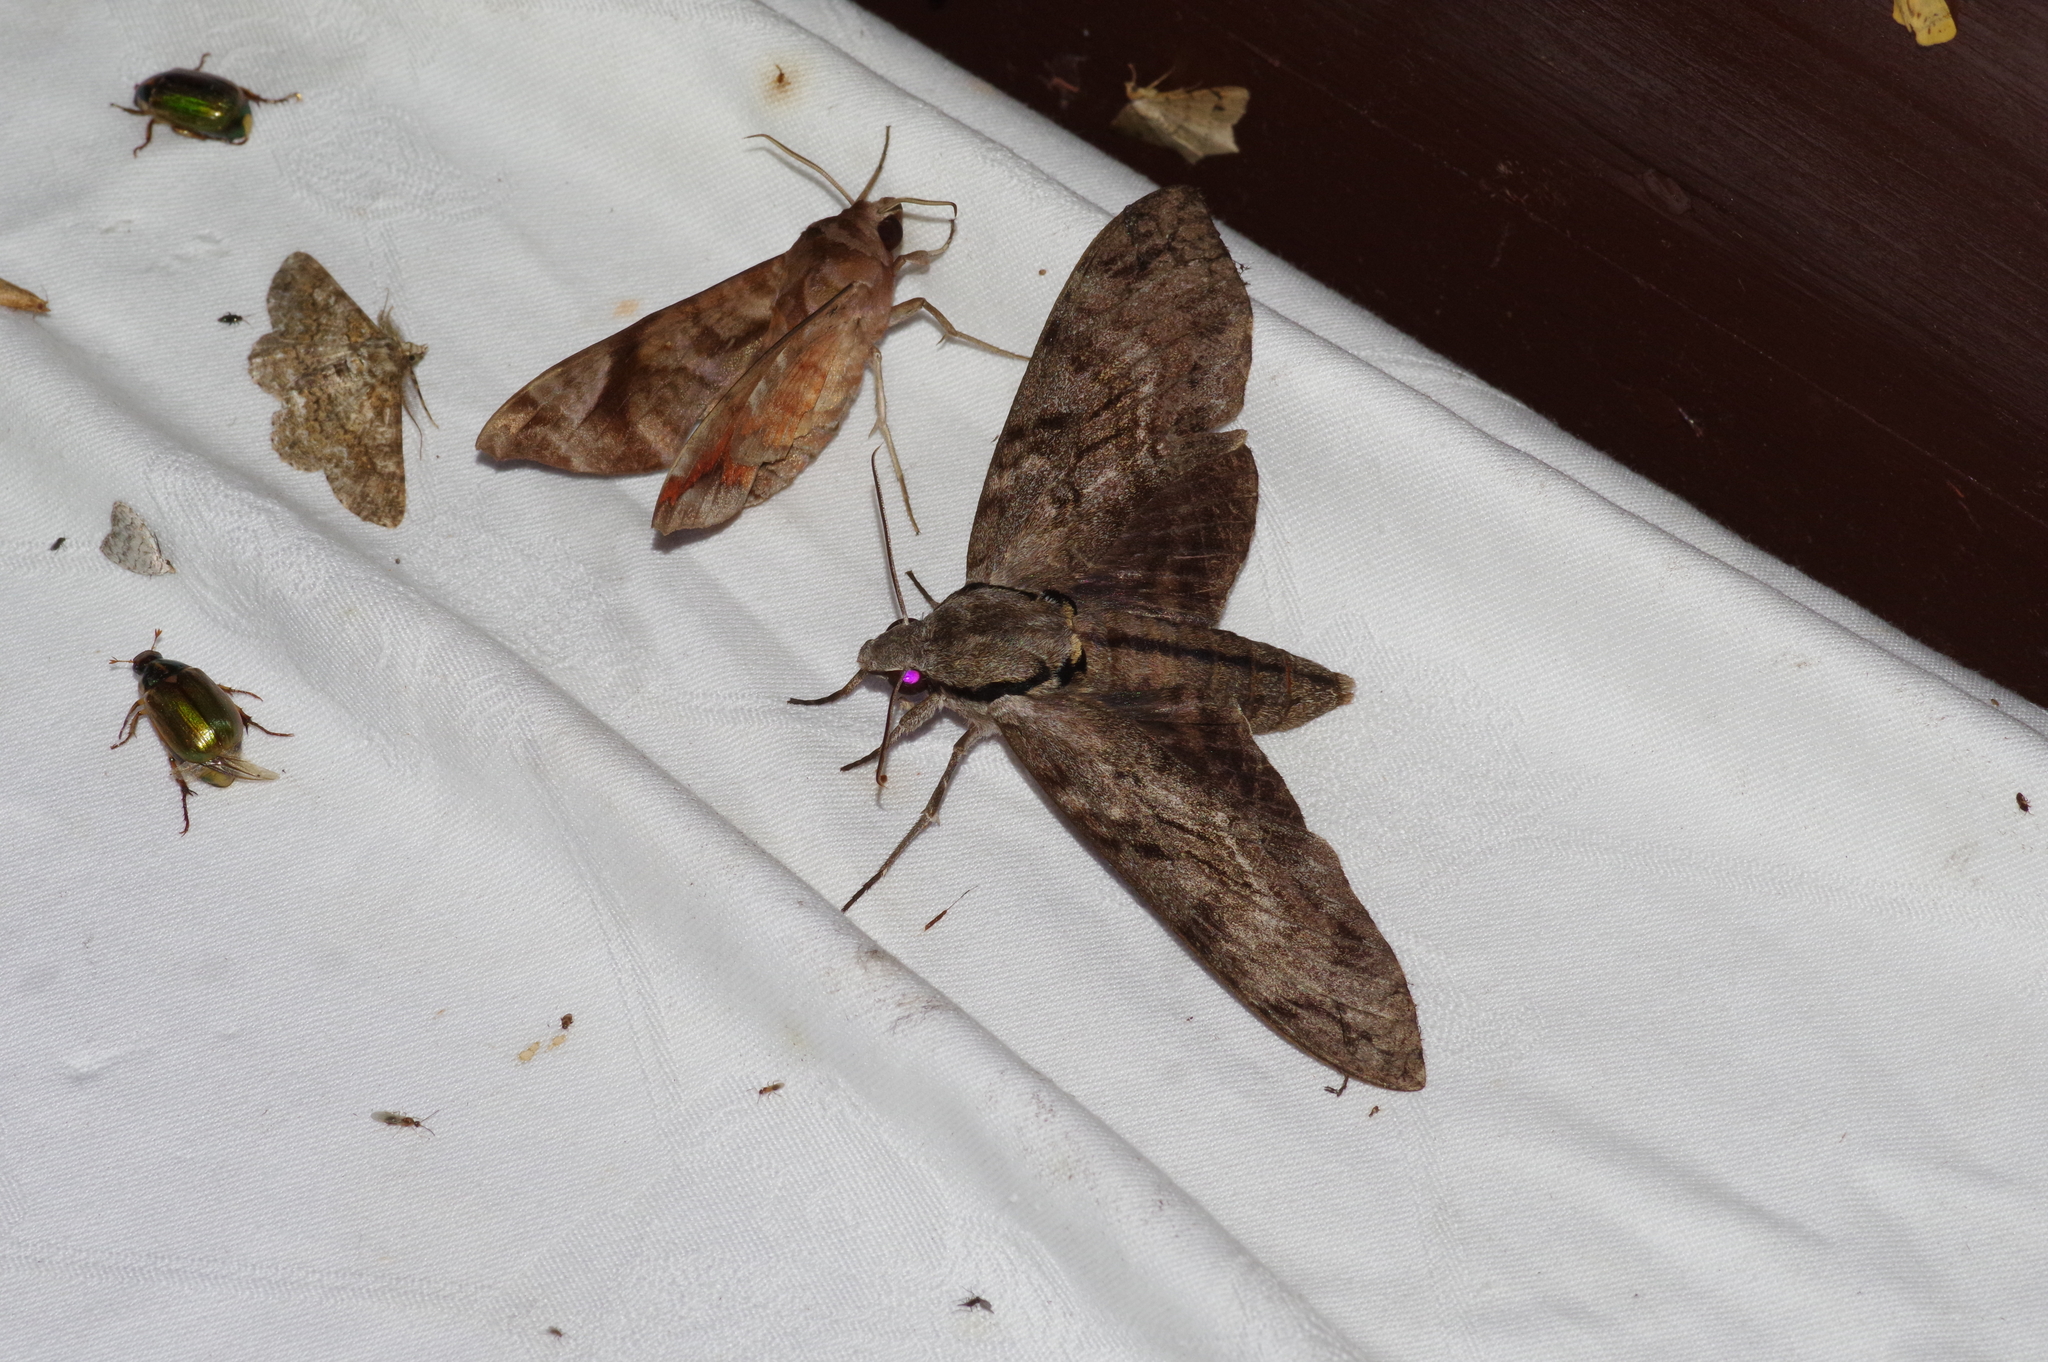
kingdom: Animalia
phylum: Arthropoda
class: Insecta
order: Lepidoptera
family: Sphingidae
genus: Psilogramma
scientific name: Psilogramma increta
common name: Gray hawk moth
